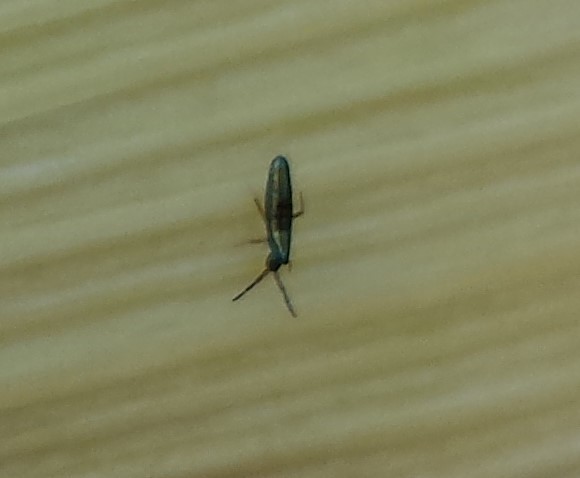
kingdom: Animalia
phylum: Arthropoda
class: Collembola
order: Entomobryomorpha
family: Entomobryidae
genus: Lepidocyrtus
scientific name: Lepidocyrtus paradoxus
